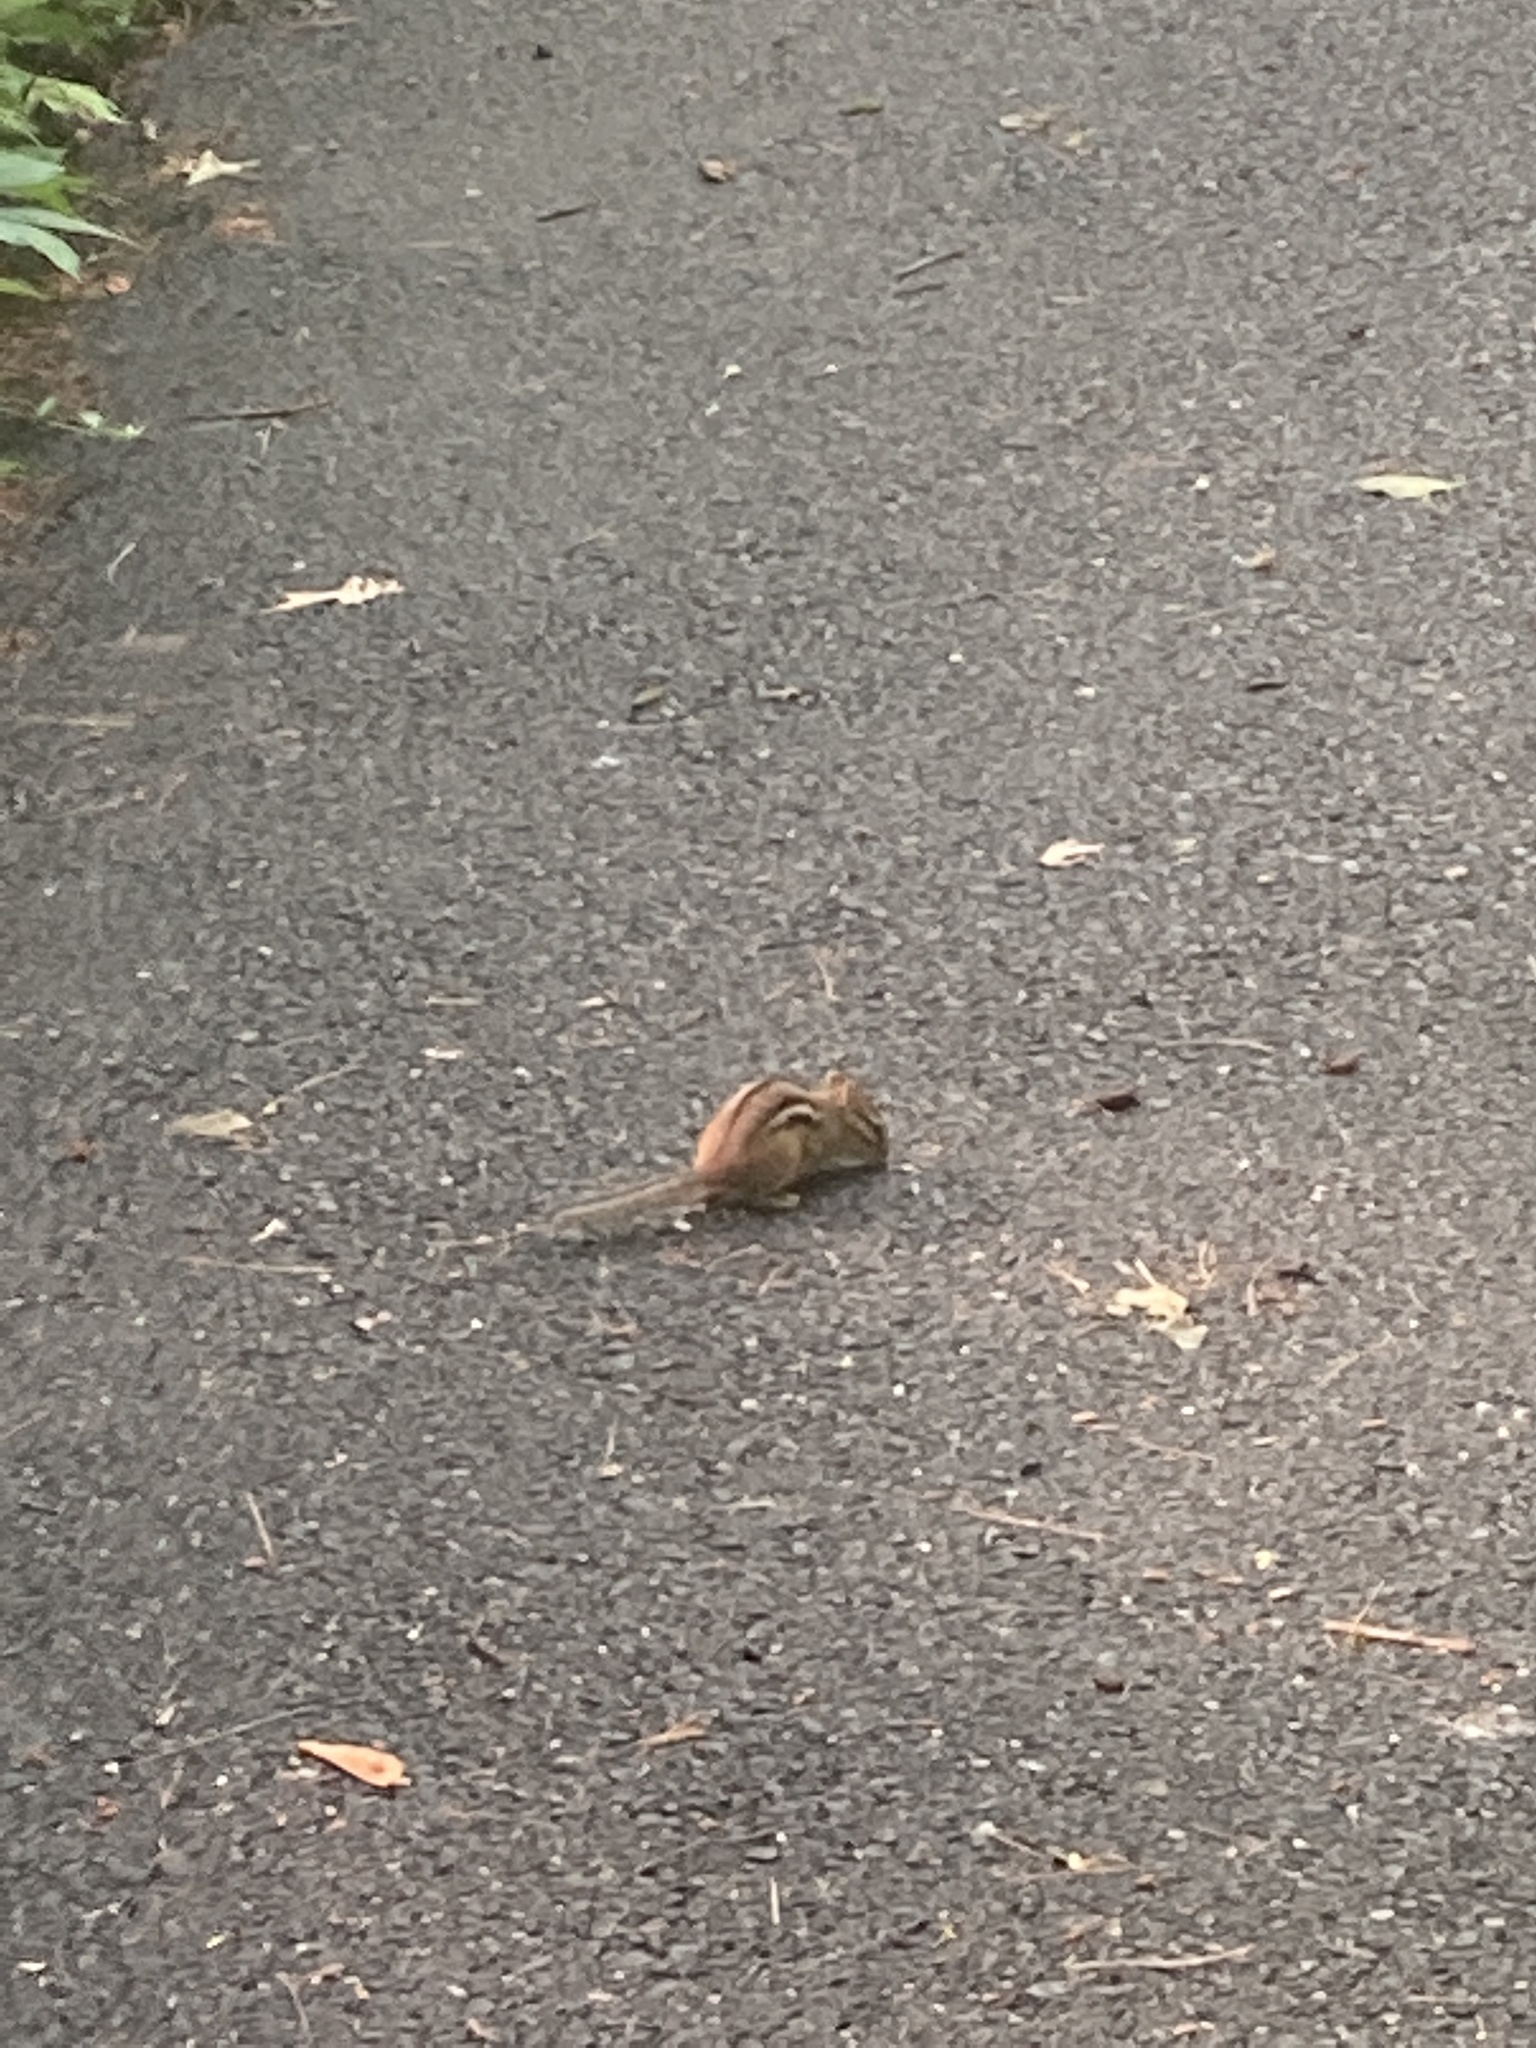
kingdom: Animalia
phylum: Chordata
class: Mammalia
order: Rodentia
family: Sciuridae
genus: Tamias
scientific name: Tamias striatus
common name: Eastern chipmunk
